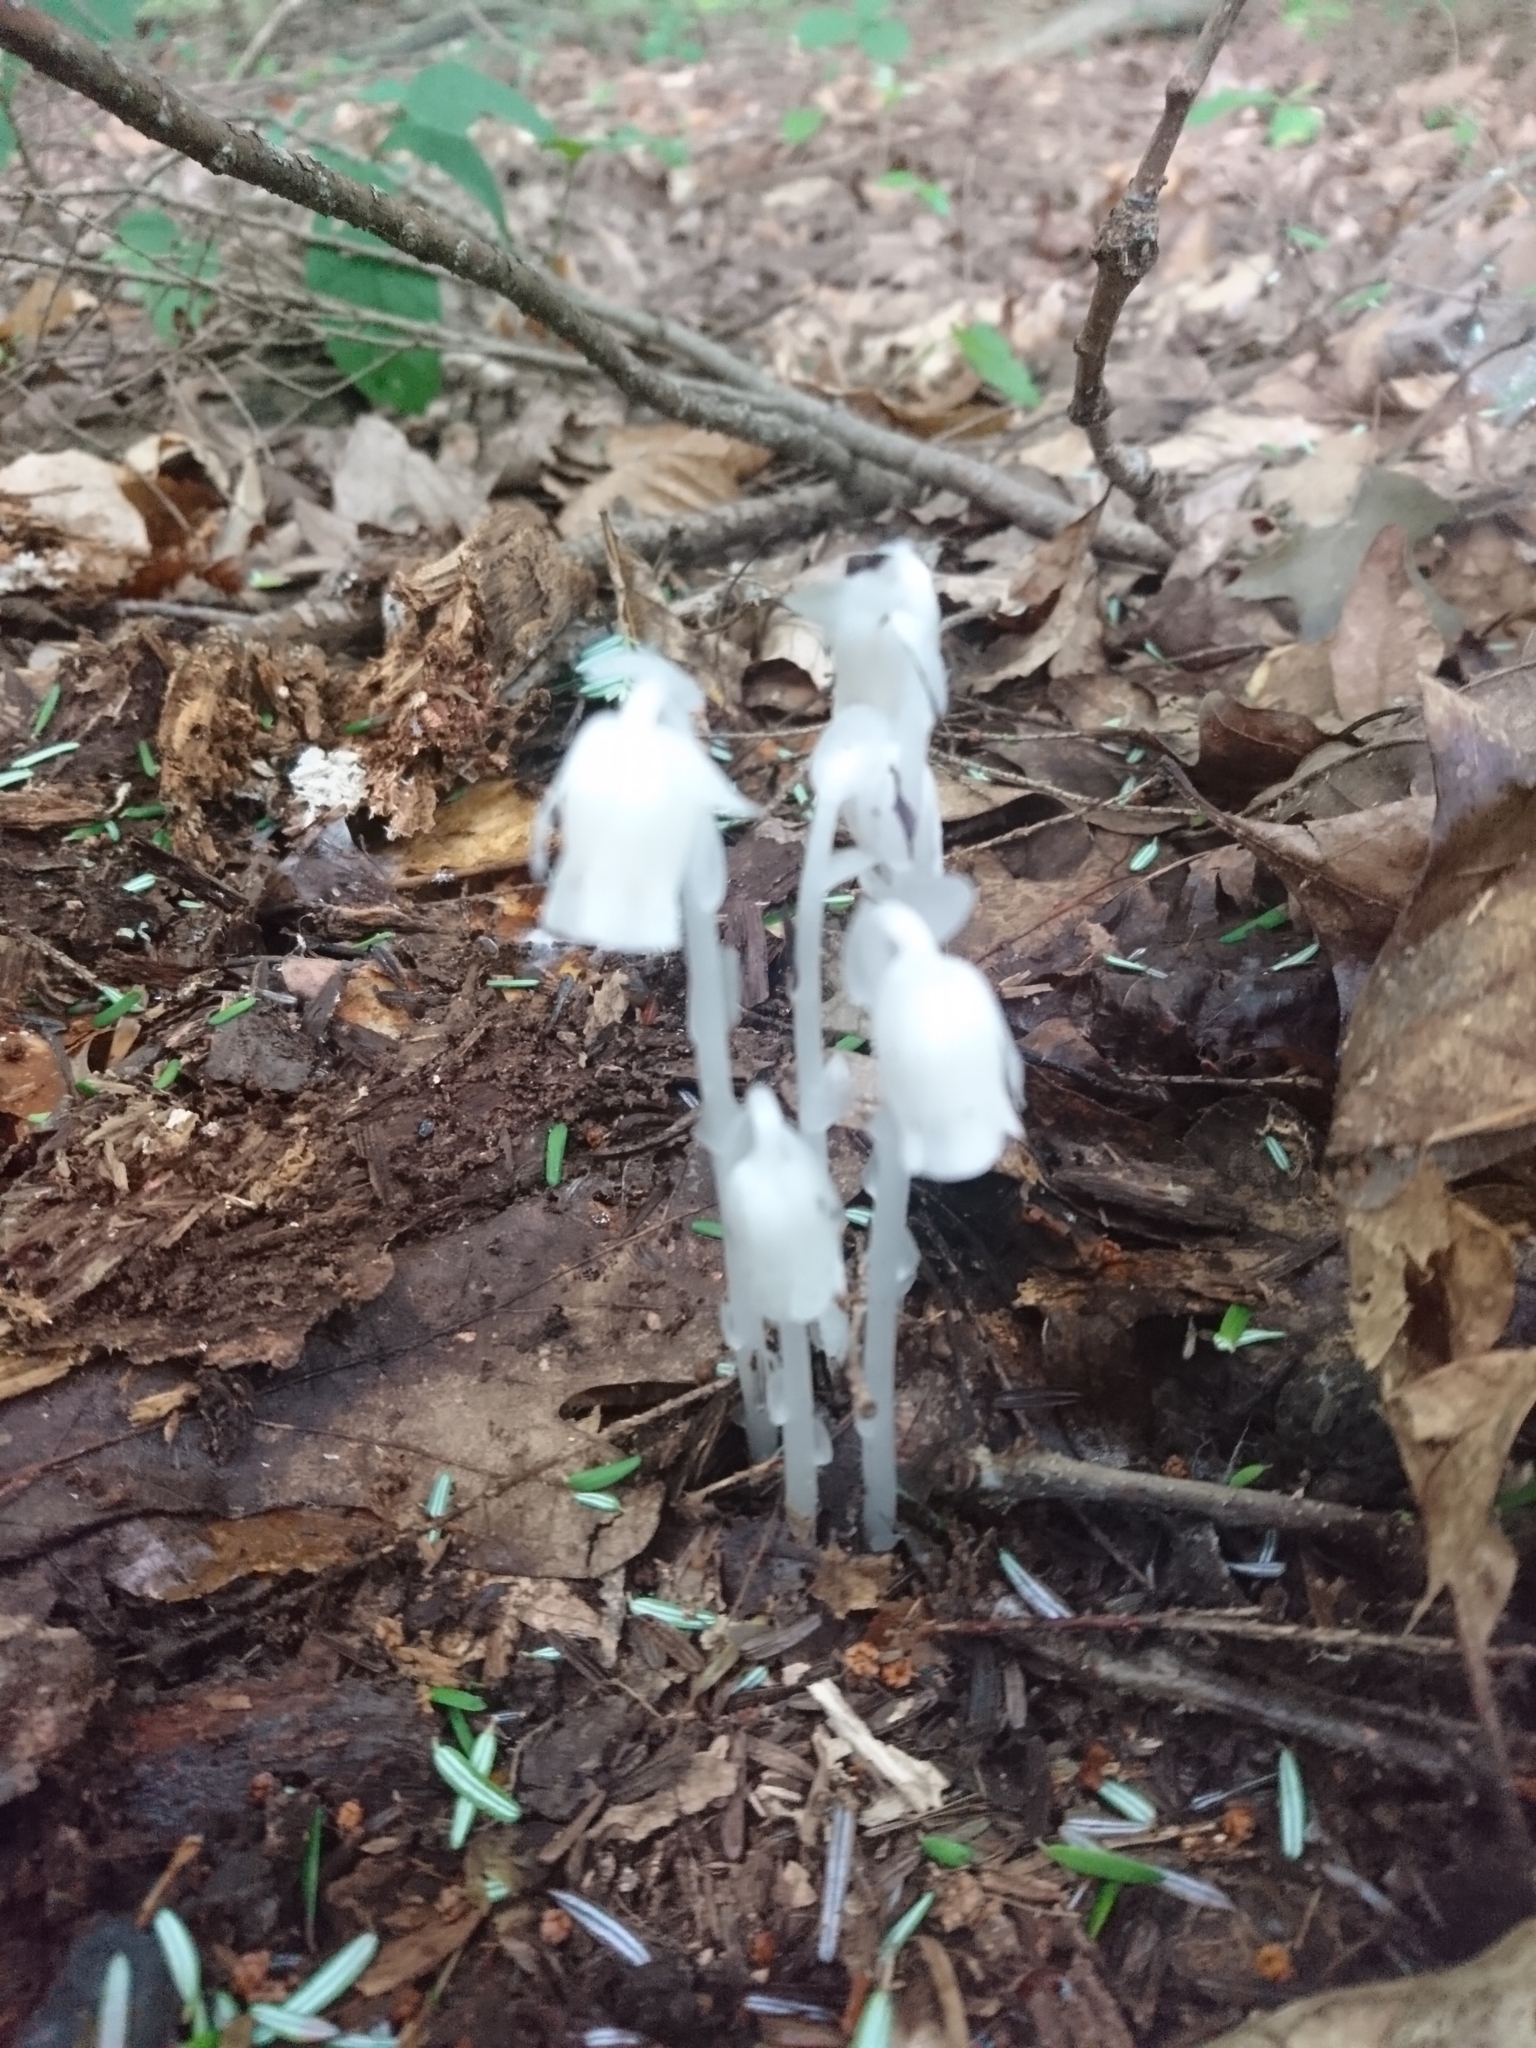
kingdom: Plantae
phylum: Tracheophyta
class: Magnoliopsida
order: Ericales
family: Ericaceae
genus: Monotropa
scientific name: Monotropa uniflora
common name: Convulsion root
